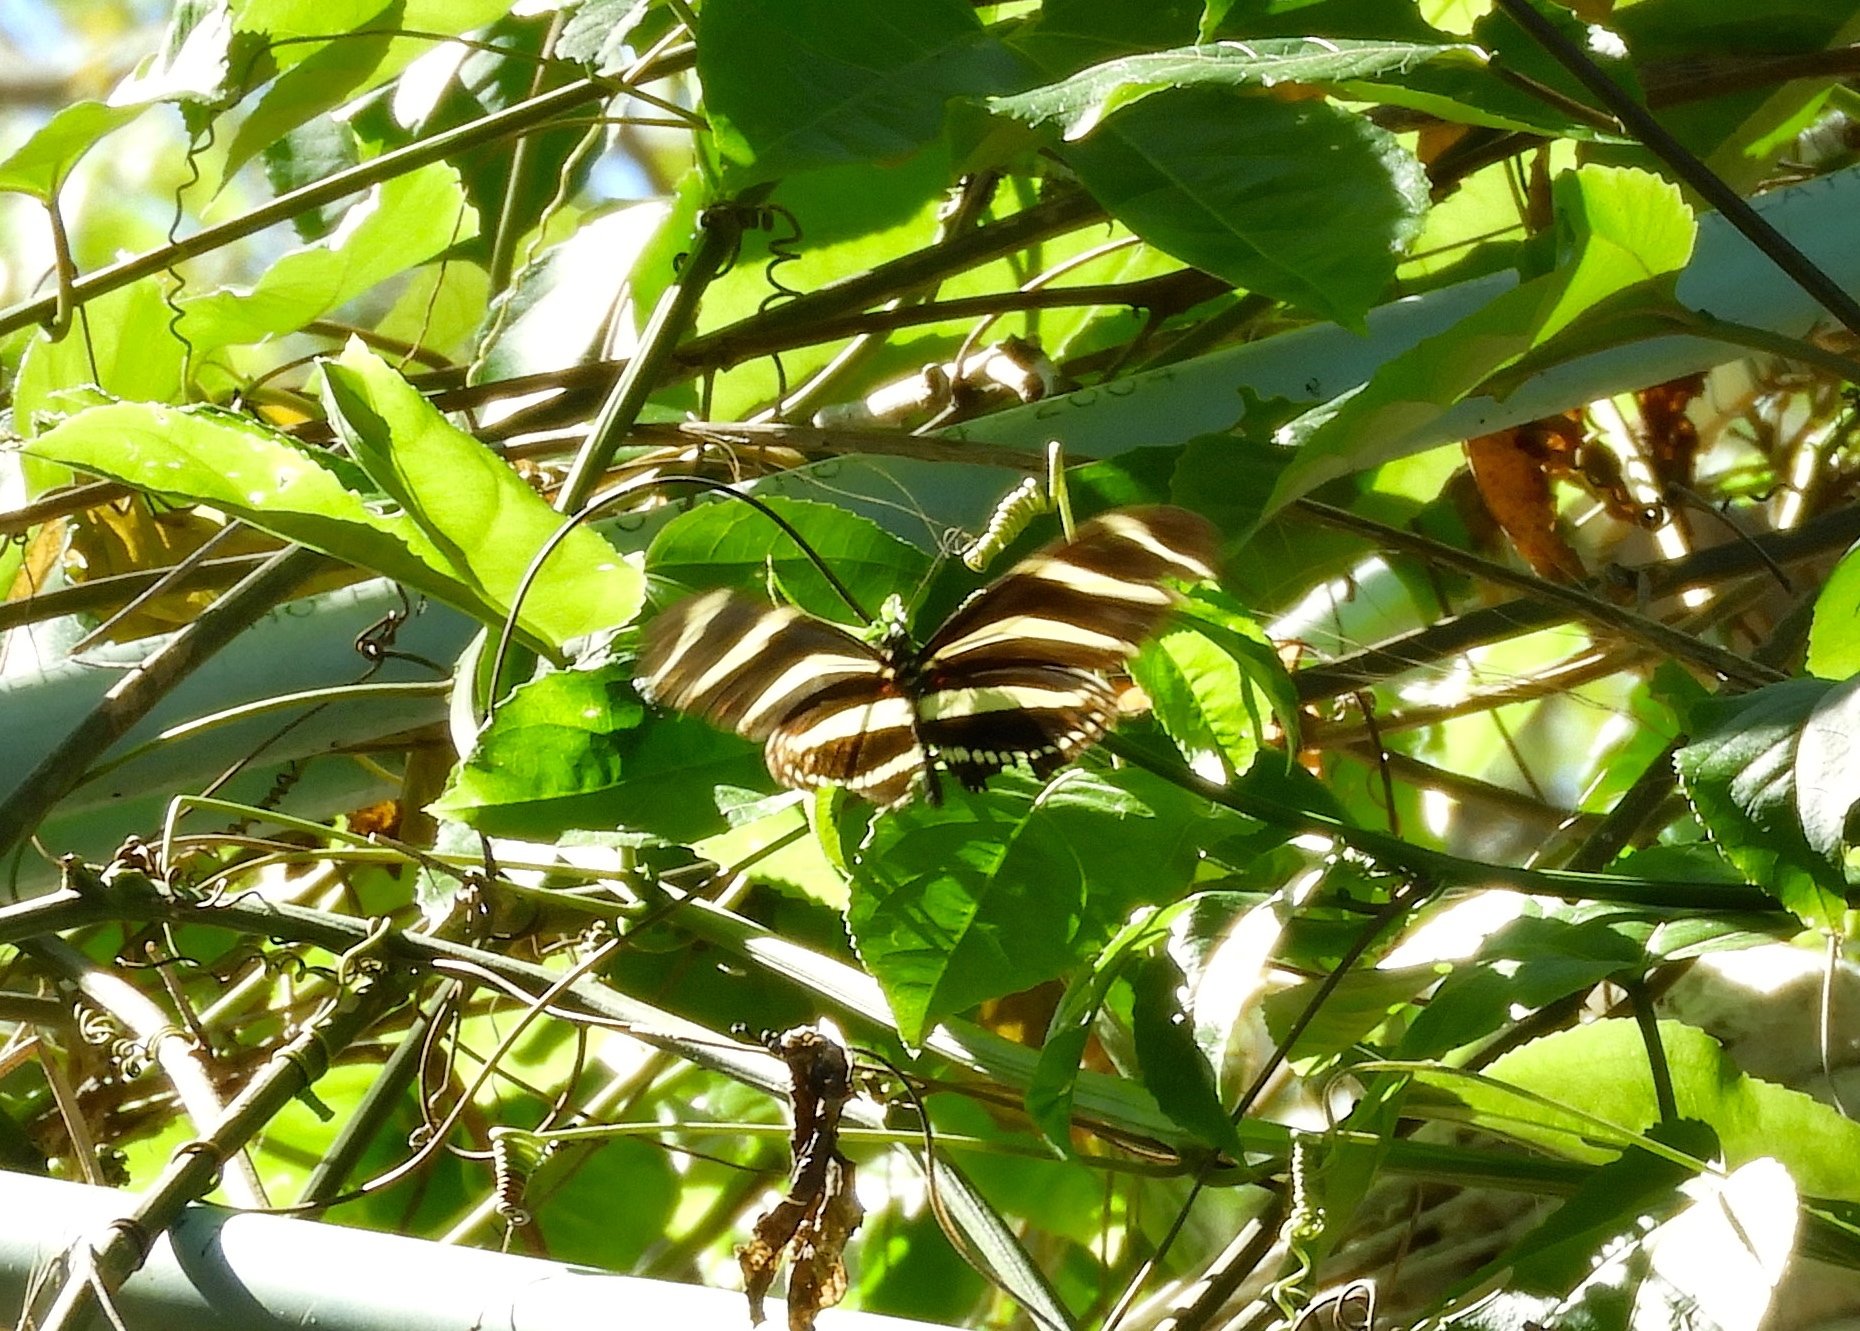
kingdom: Animalia
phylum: Arthropoda
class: Insecta
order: Lepidoptera
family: Nymphalidae
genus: Heliconius
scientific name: Heliconius charithonia
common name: Zebra long wing
